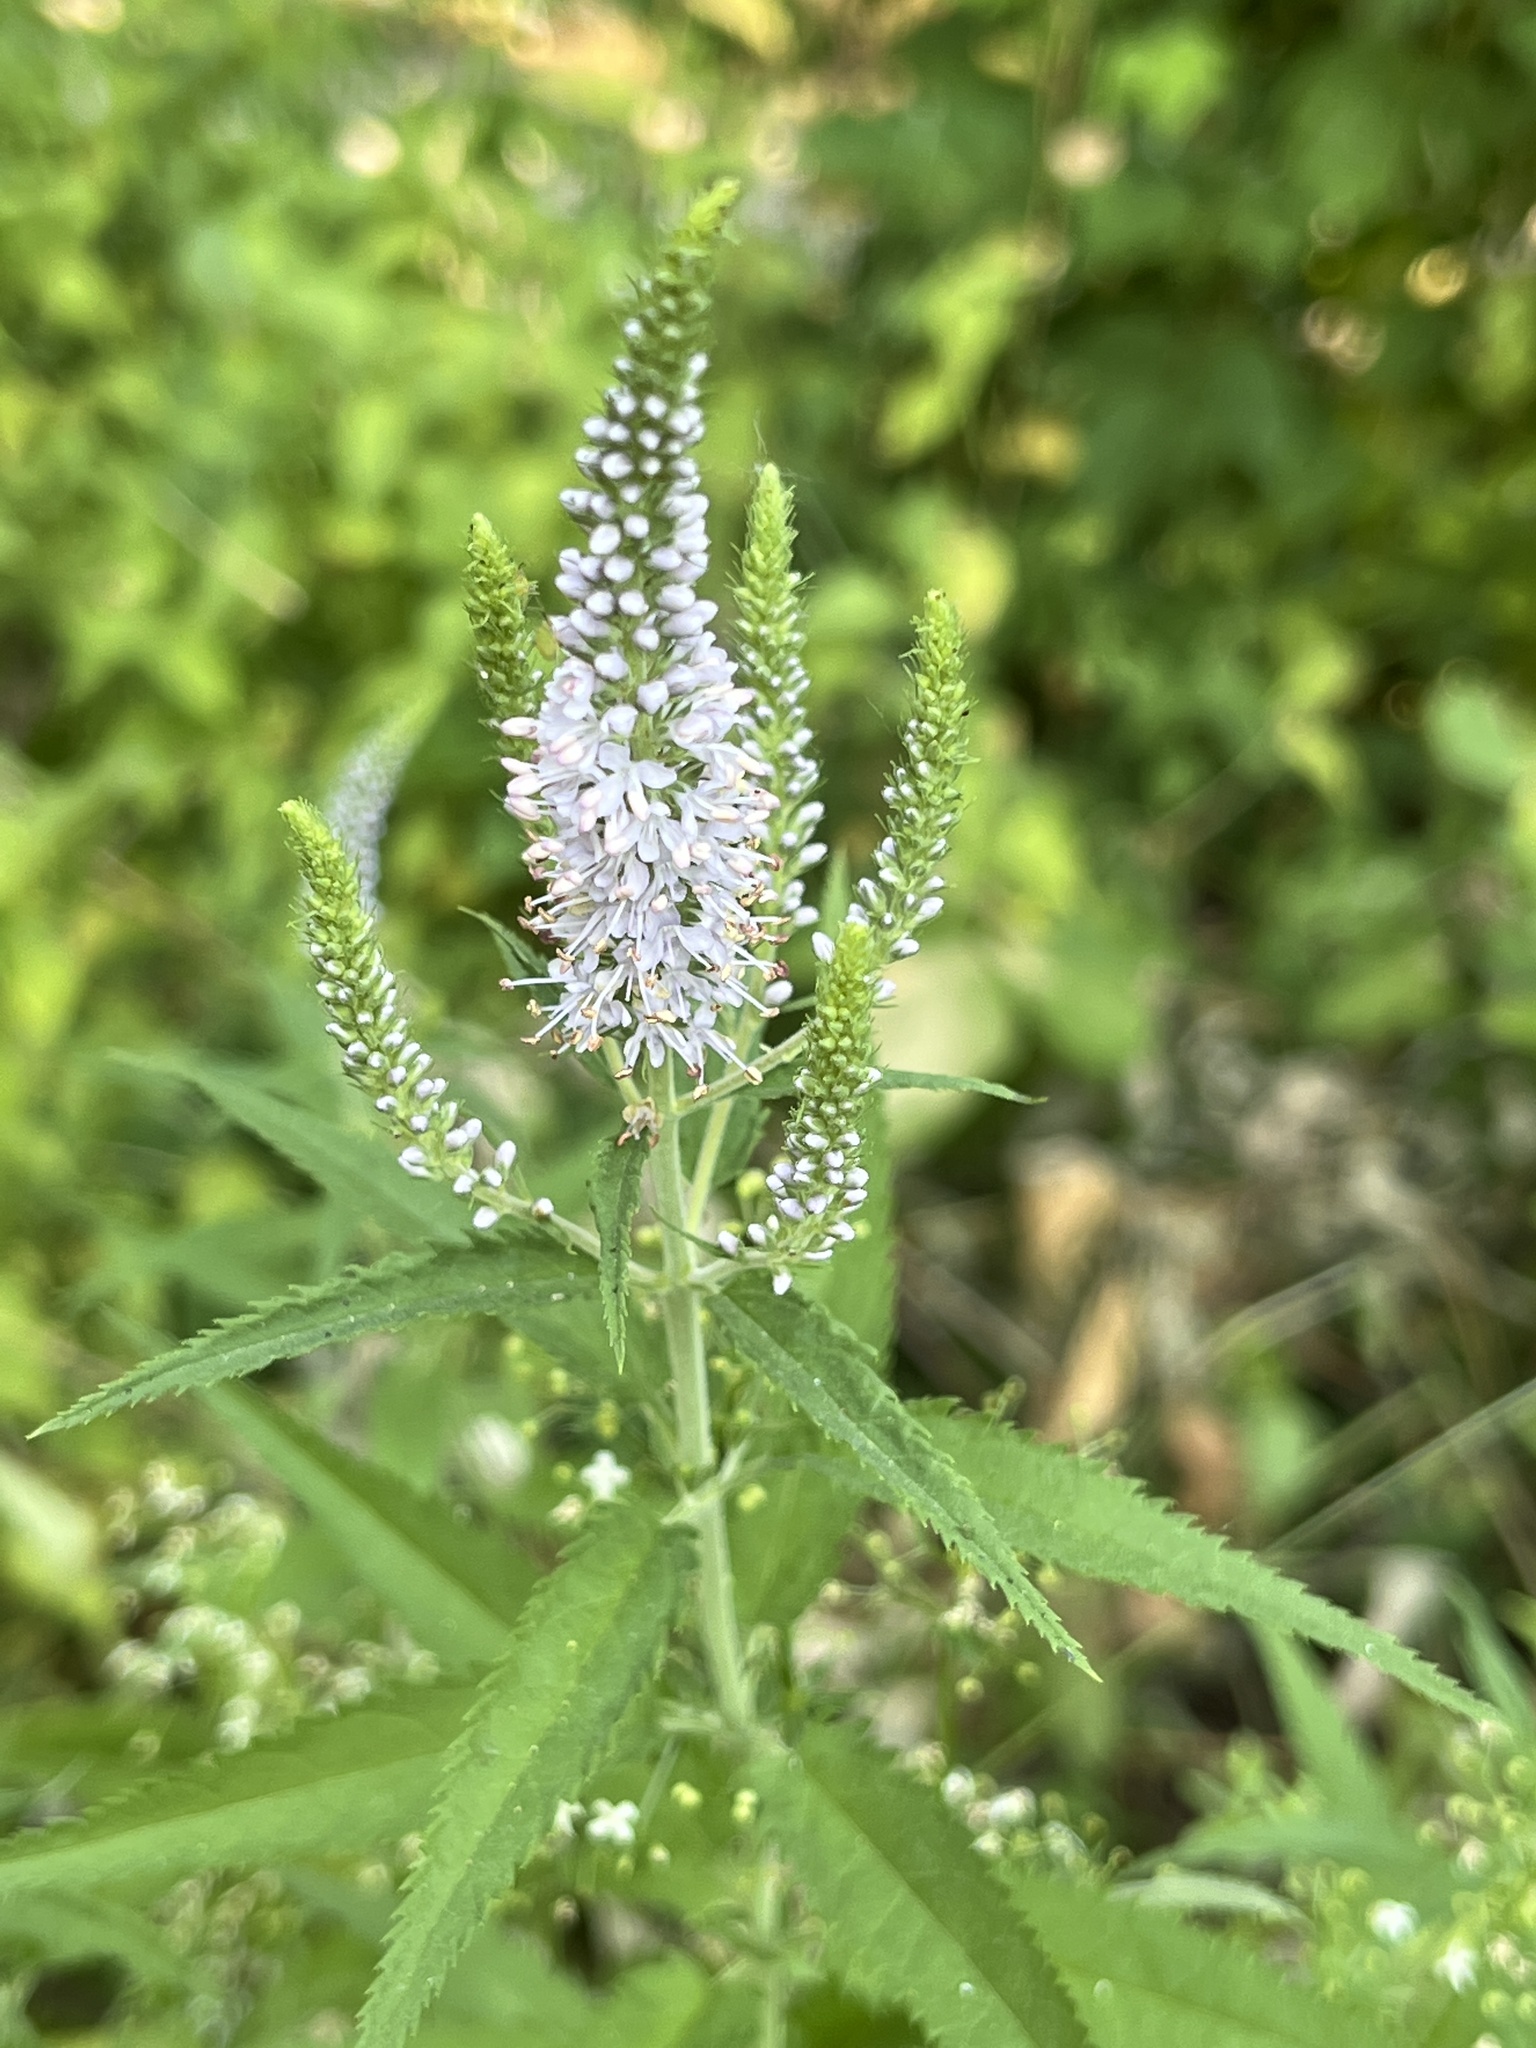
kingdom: Plantae
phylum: Tracheophyta
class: Magnoliopsida
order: Lamiales
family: Plantaginaceae
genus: Veronica
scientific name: Veronica longifolia
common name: Garden speedwell
